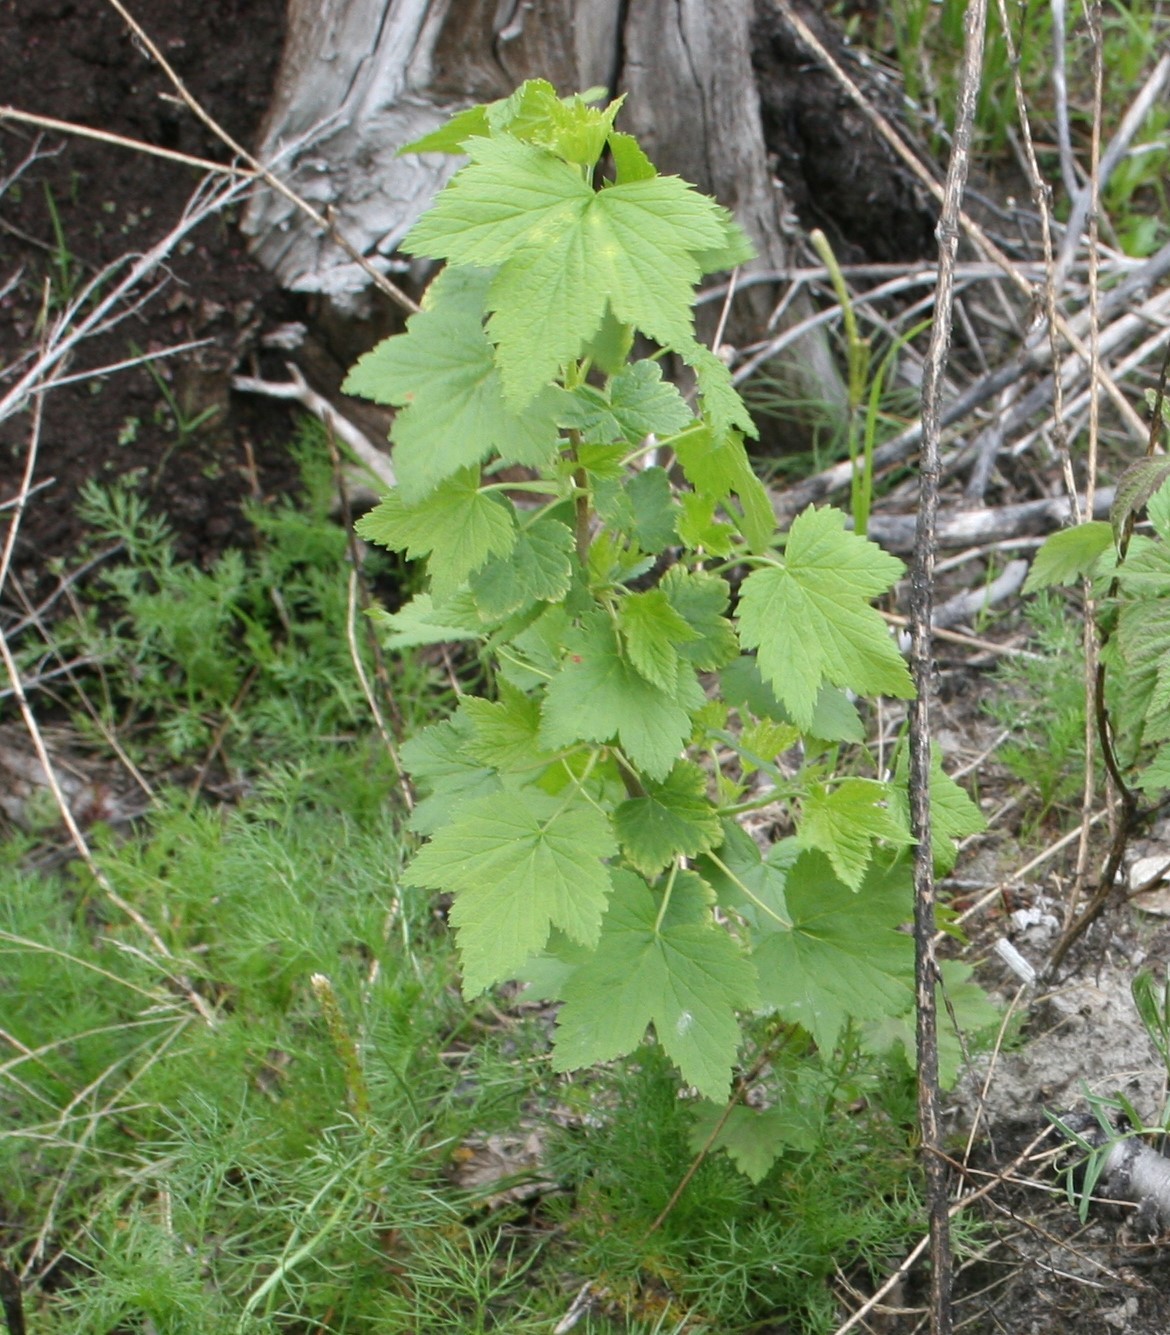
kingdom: Plantae
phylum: Tracheophyta
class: Magnoliopsida
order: Saxifragales
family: Grossulariaceae
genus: Ribes
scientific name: Ribes nigrum
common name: Black currant
